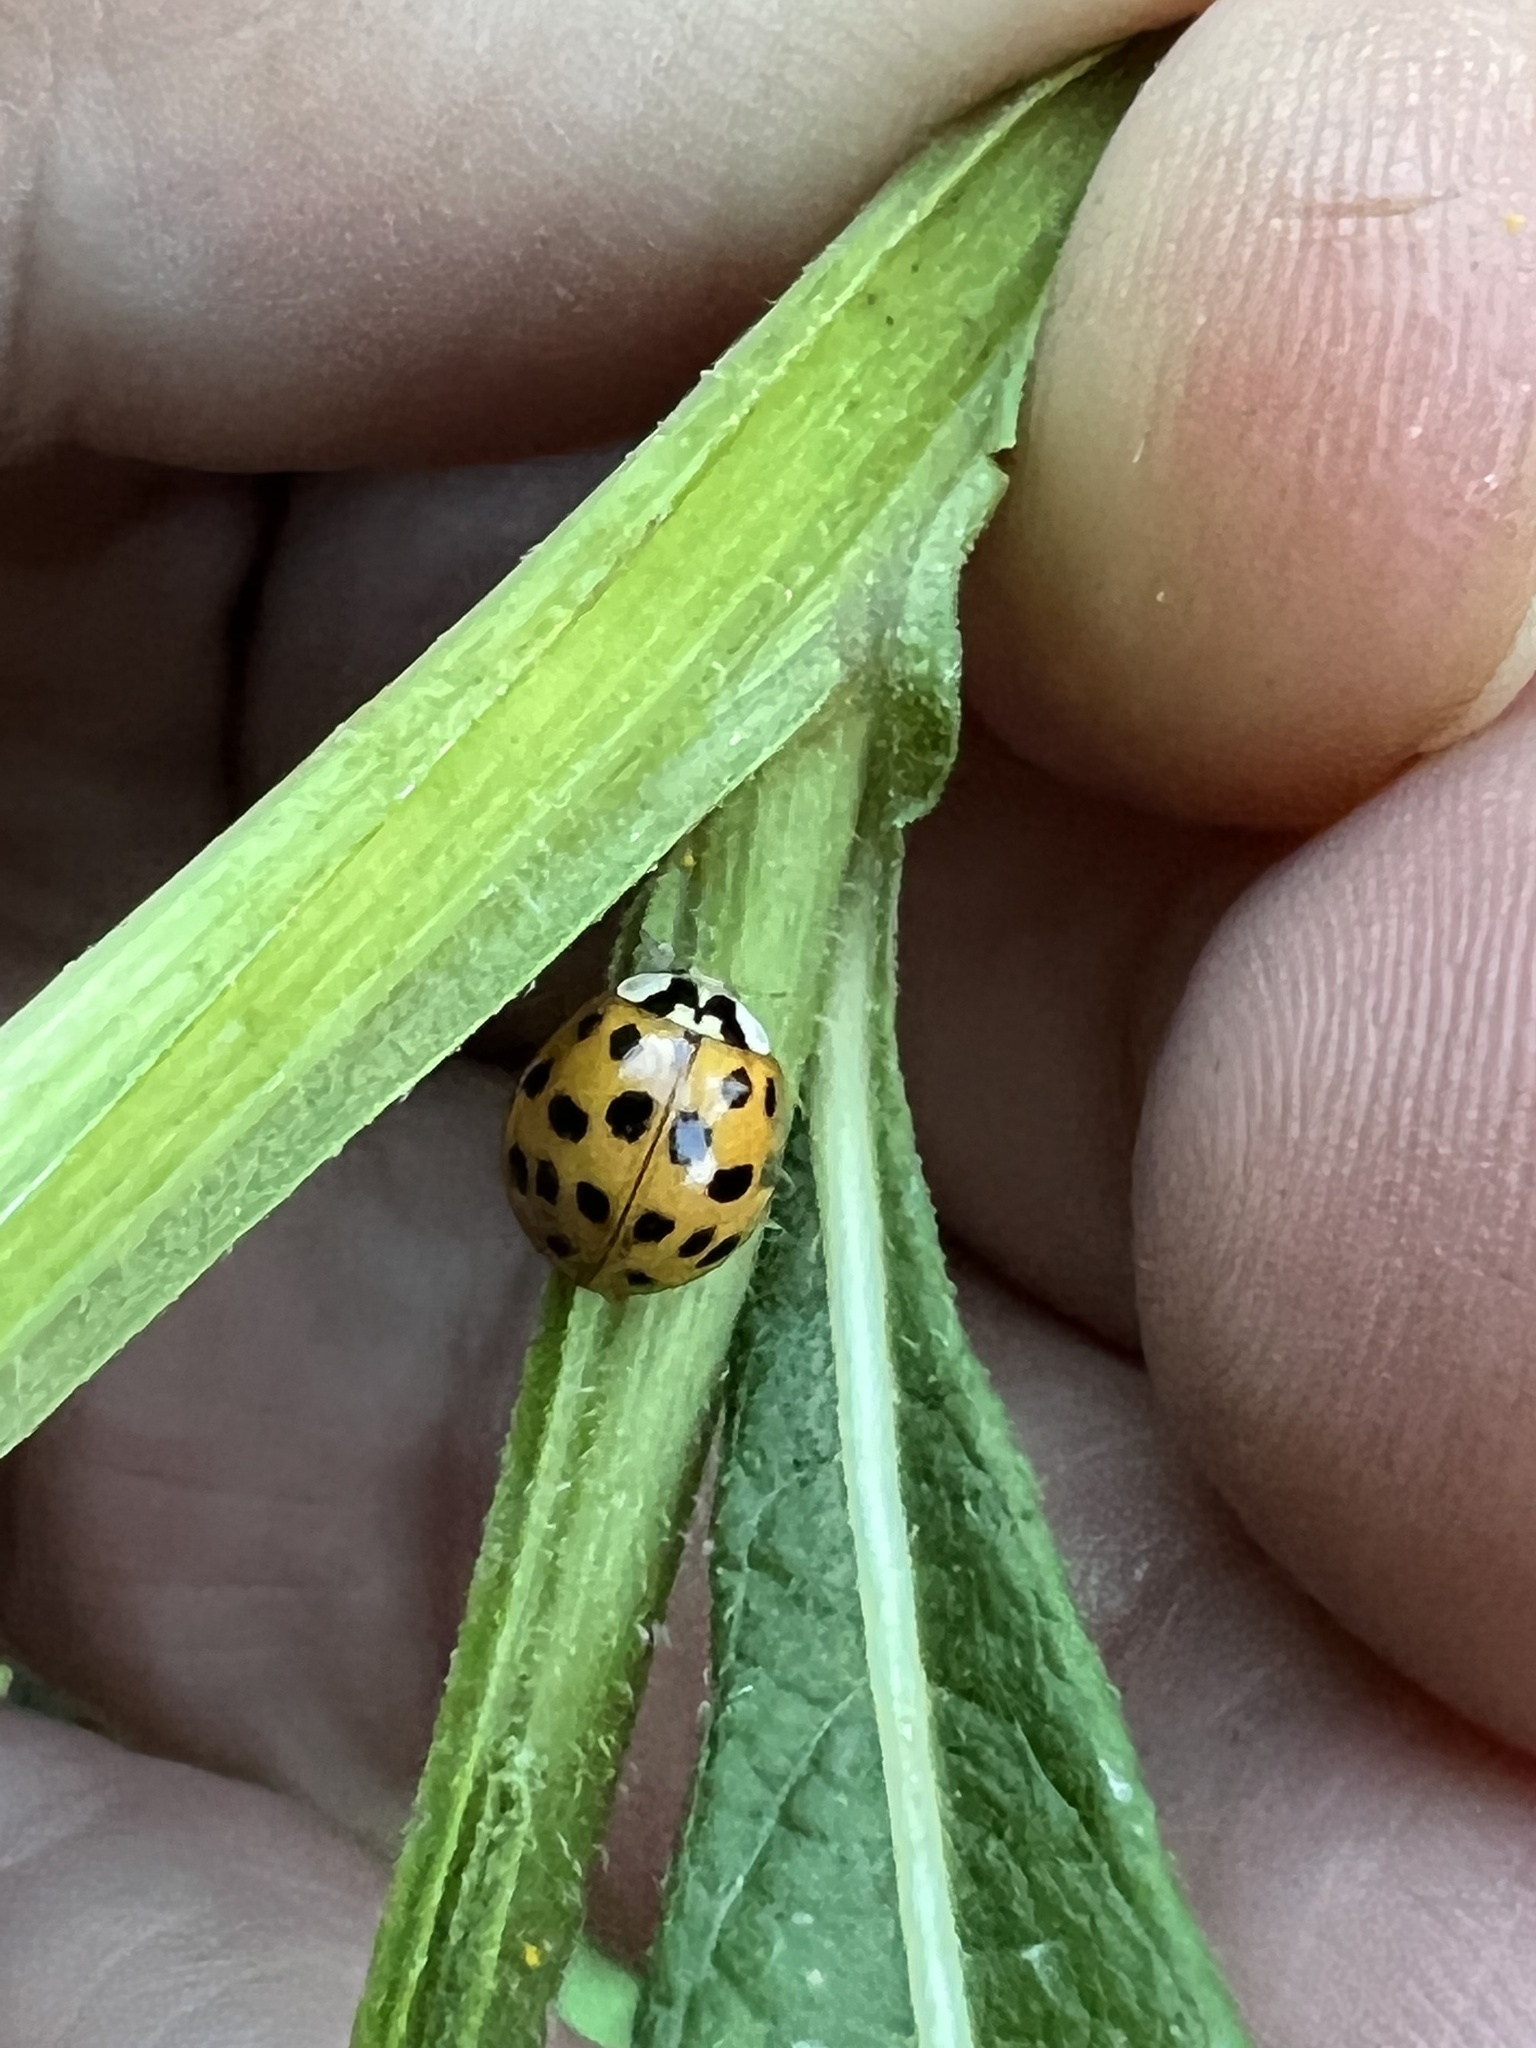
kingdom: Animalia
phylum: Arthropoda
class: Insecta
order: Coleoptera
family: Coccinellidae
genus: Harmonia
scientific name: Harmonia axyridis
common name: Harlequin ladybird
